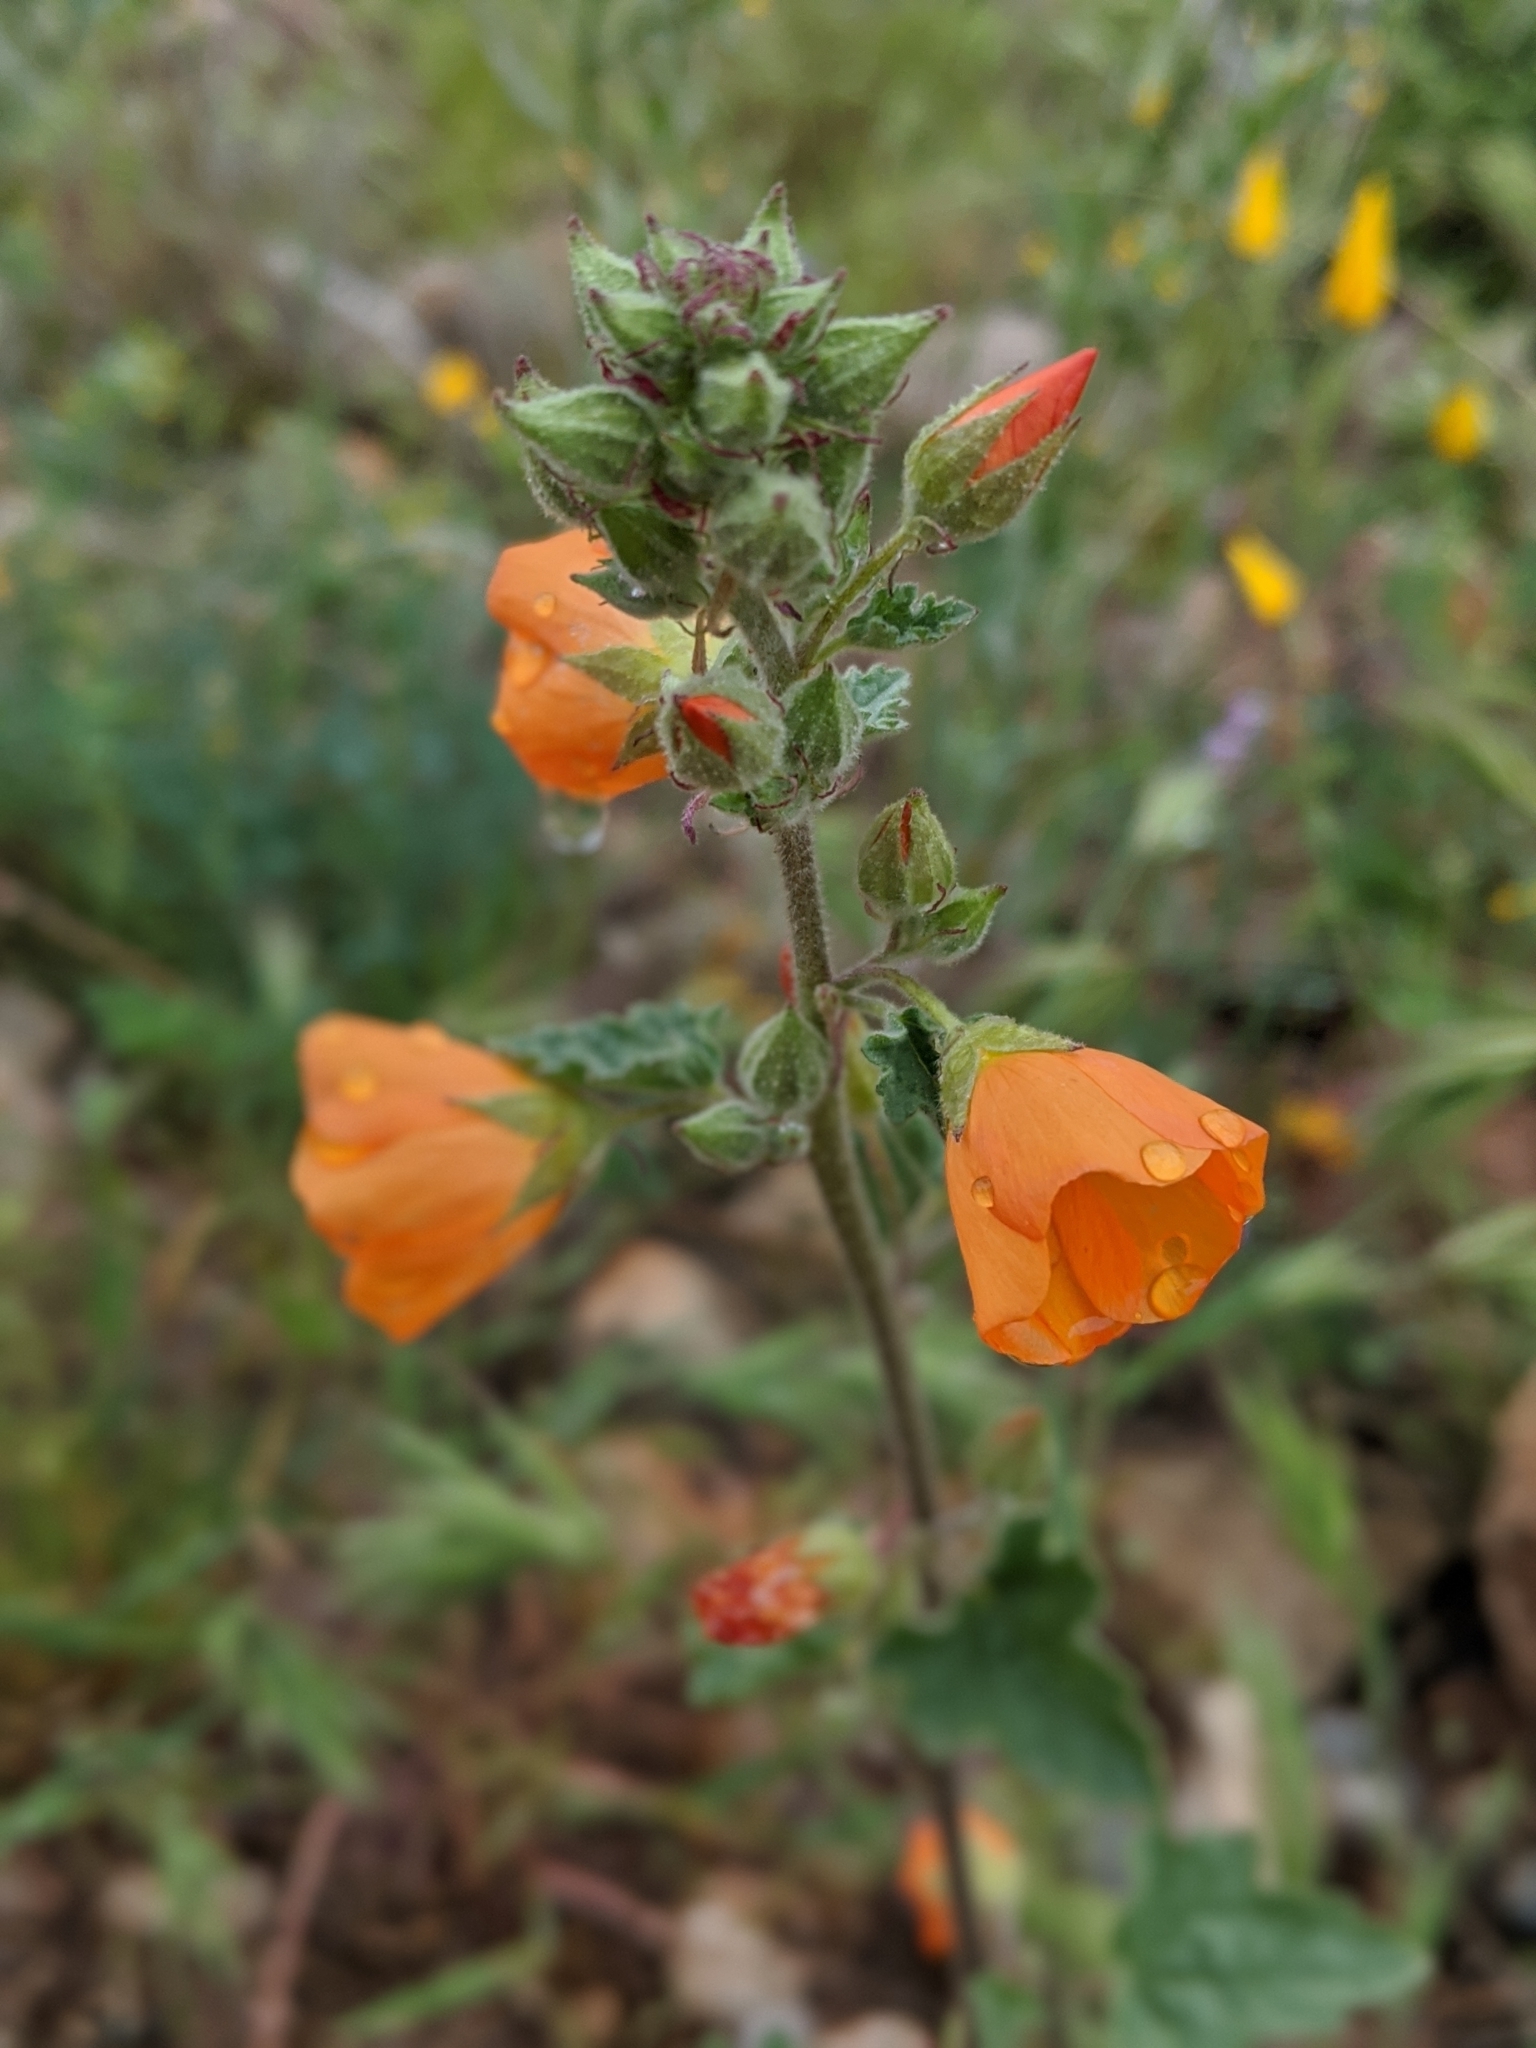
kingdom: Plantae
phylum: Tracheophyta
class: Magnoliopsida
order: Malvales
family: Malvaceae
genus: Sphaeralcea
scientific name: Sphaeralcea
